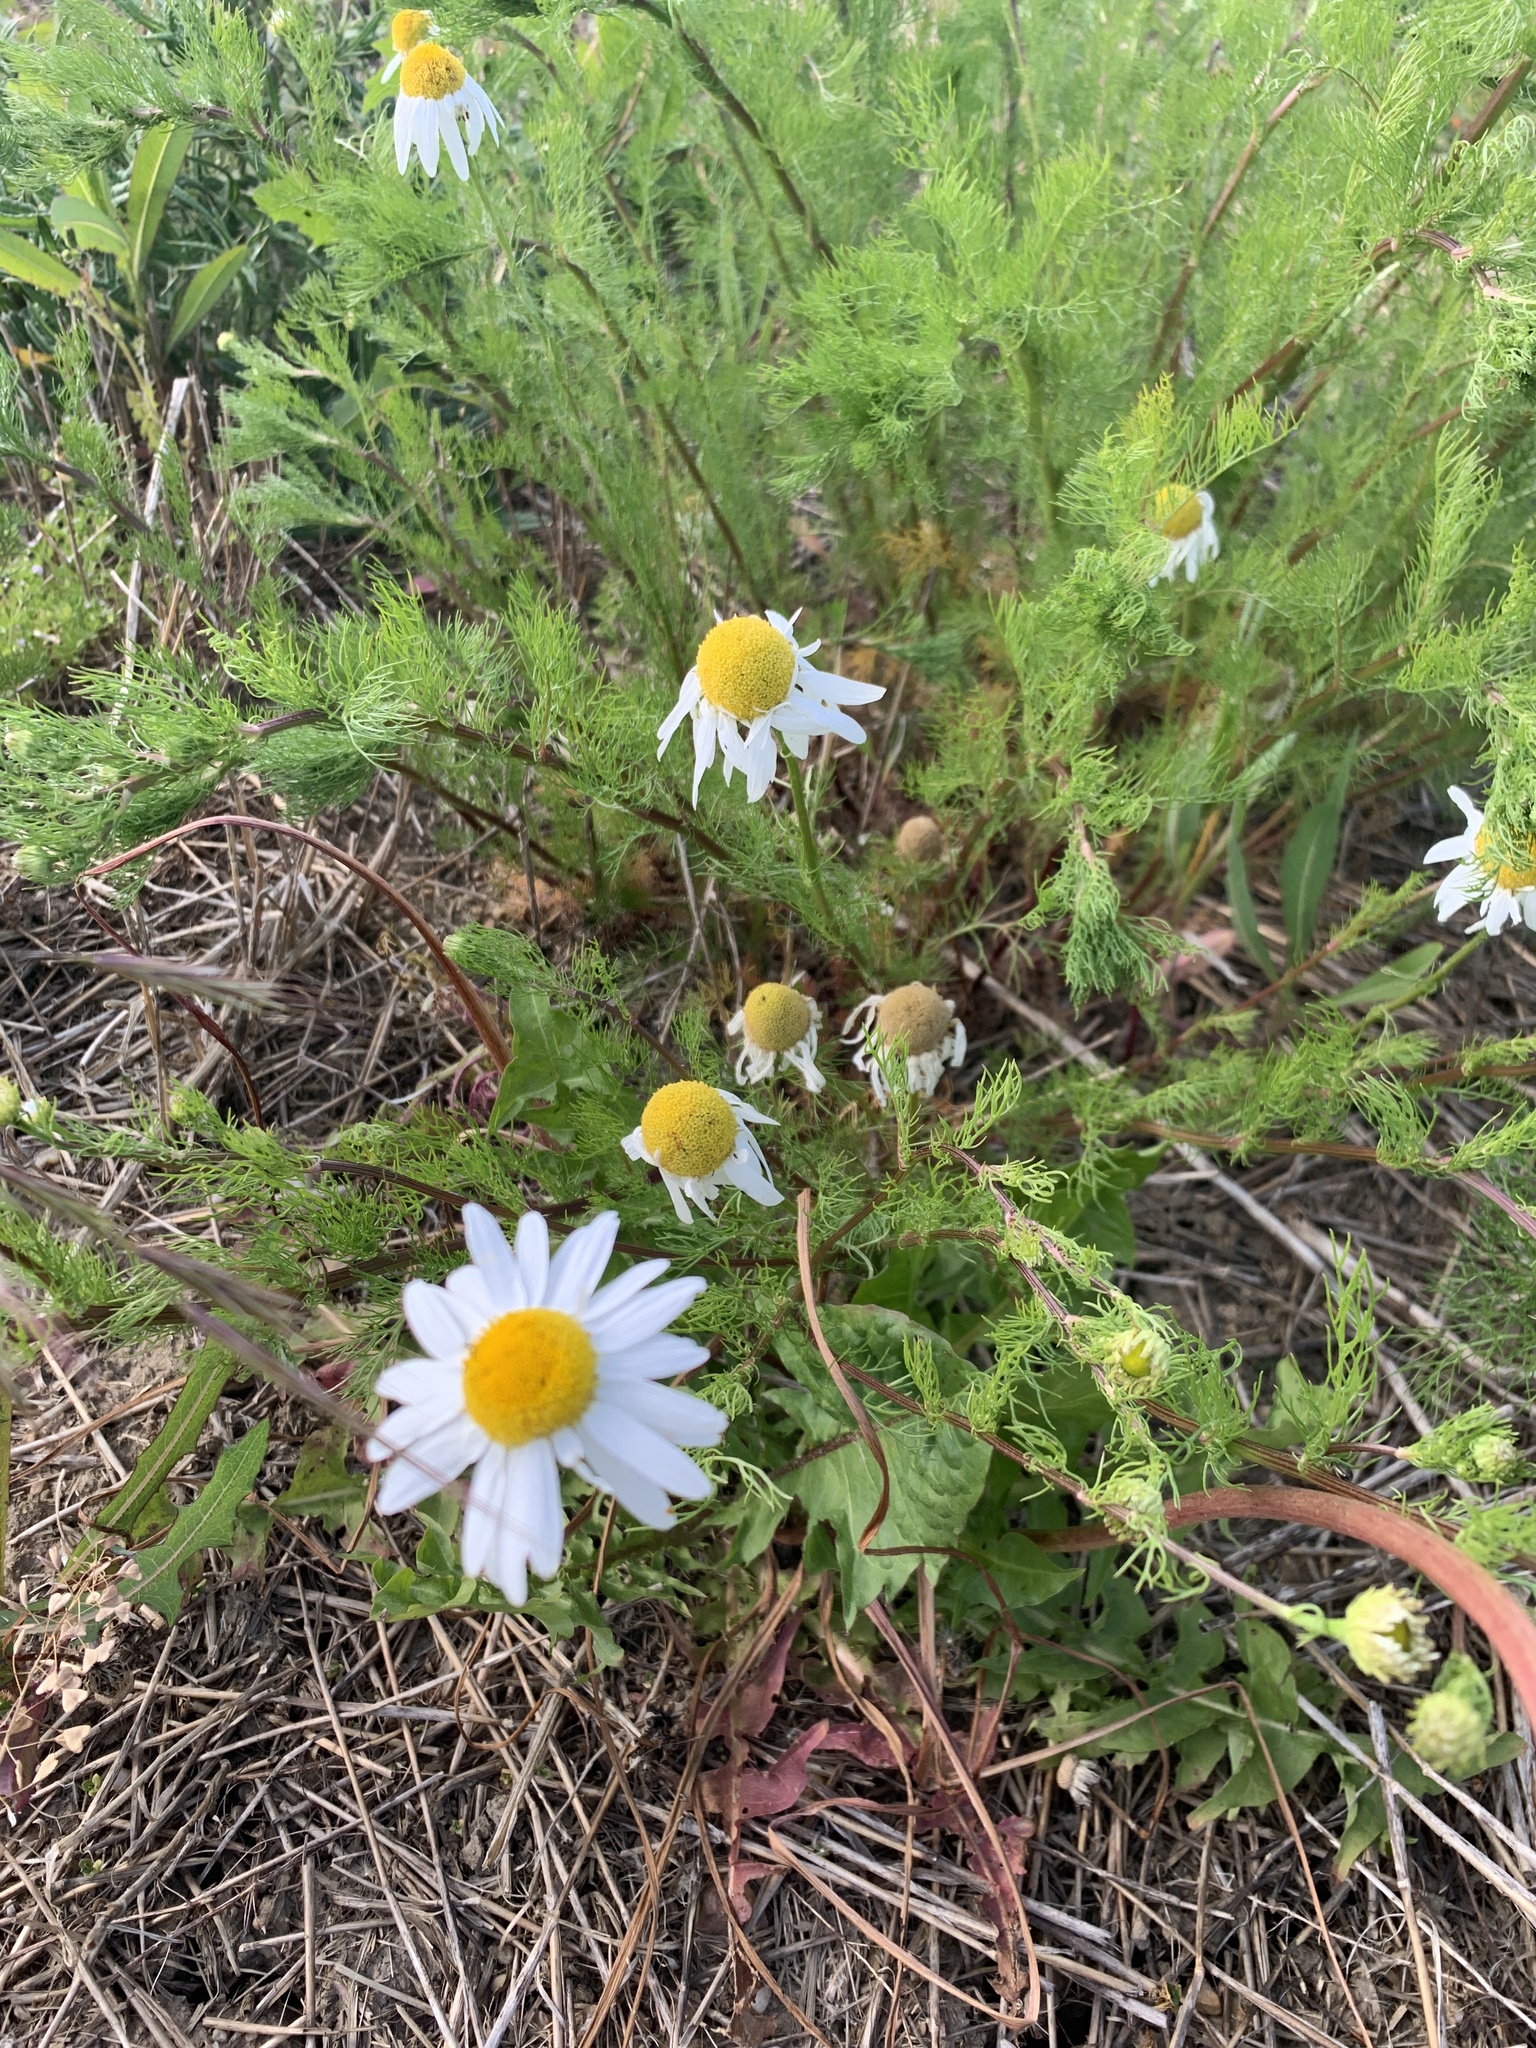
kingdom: Plantae
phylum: Tracheophyta
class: Magnoliopsida
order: Asterales
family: Asteraceae
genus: Tripleurospermum
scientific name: Tripleurospermum inodorum
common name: Scentless mayweed
